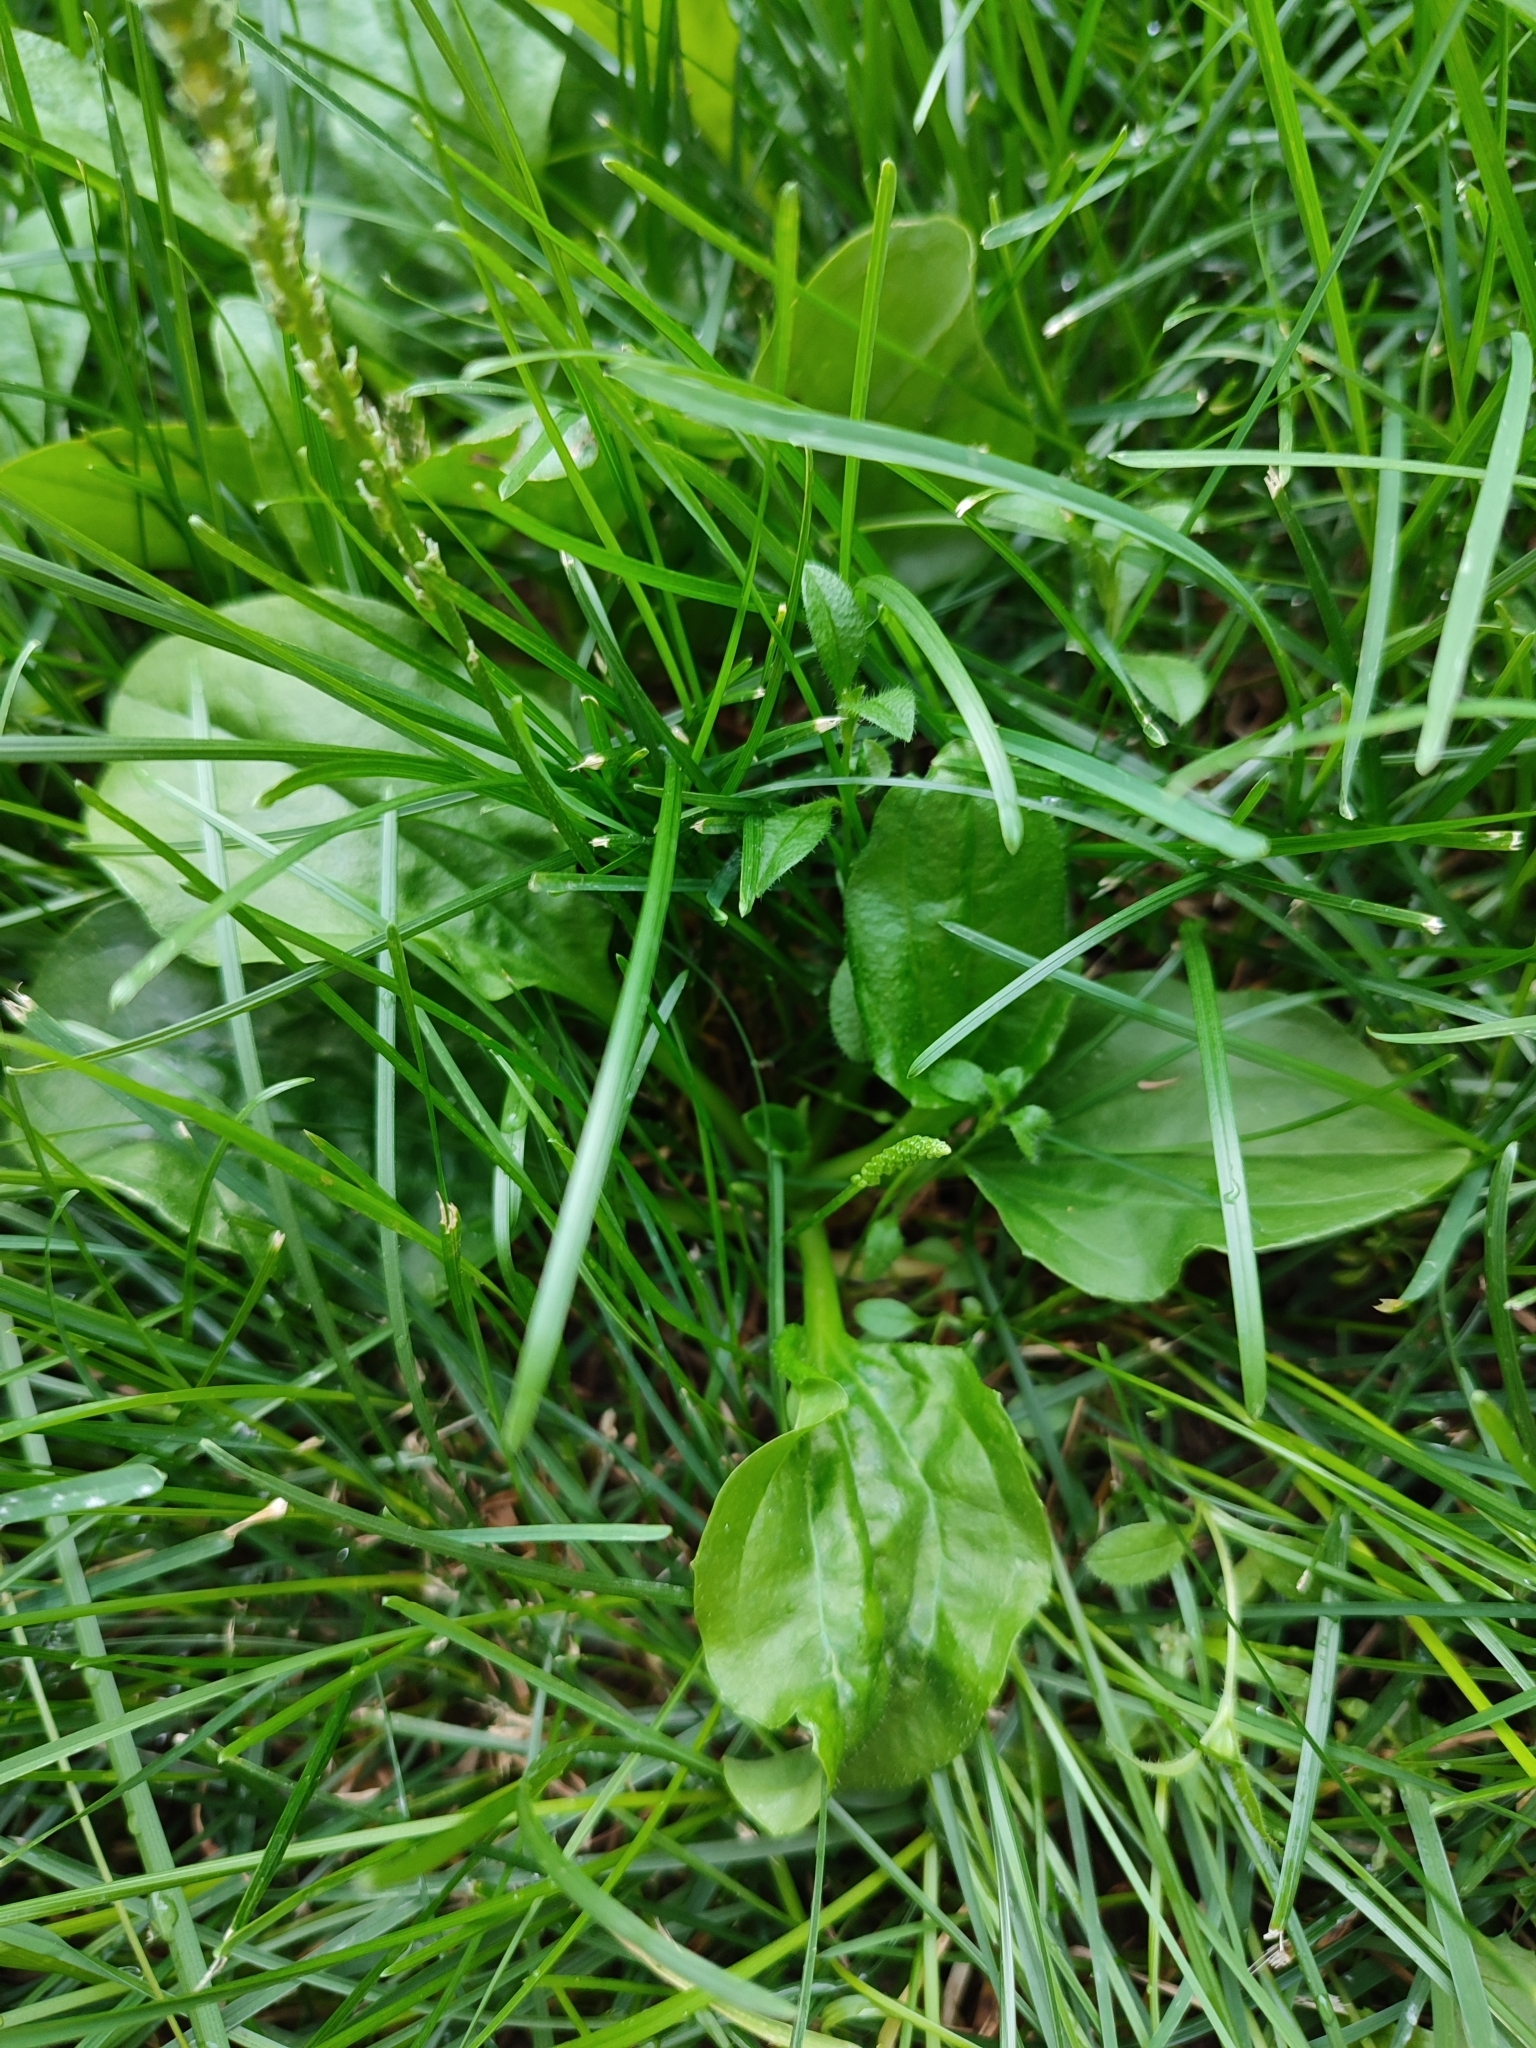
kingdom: Plantae
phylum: Tracheophyta
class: Magnoliopsida
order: Lamiales
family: Plantaginaceae
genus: Plantago
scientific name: Plantago major
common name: Common plantain
